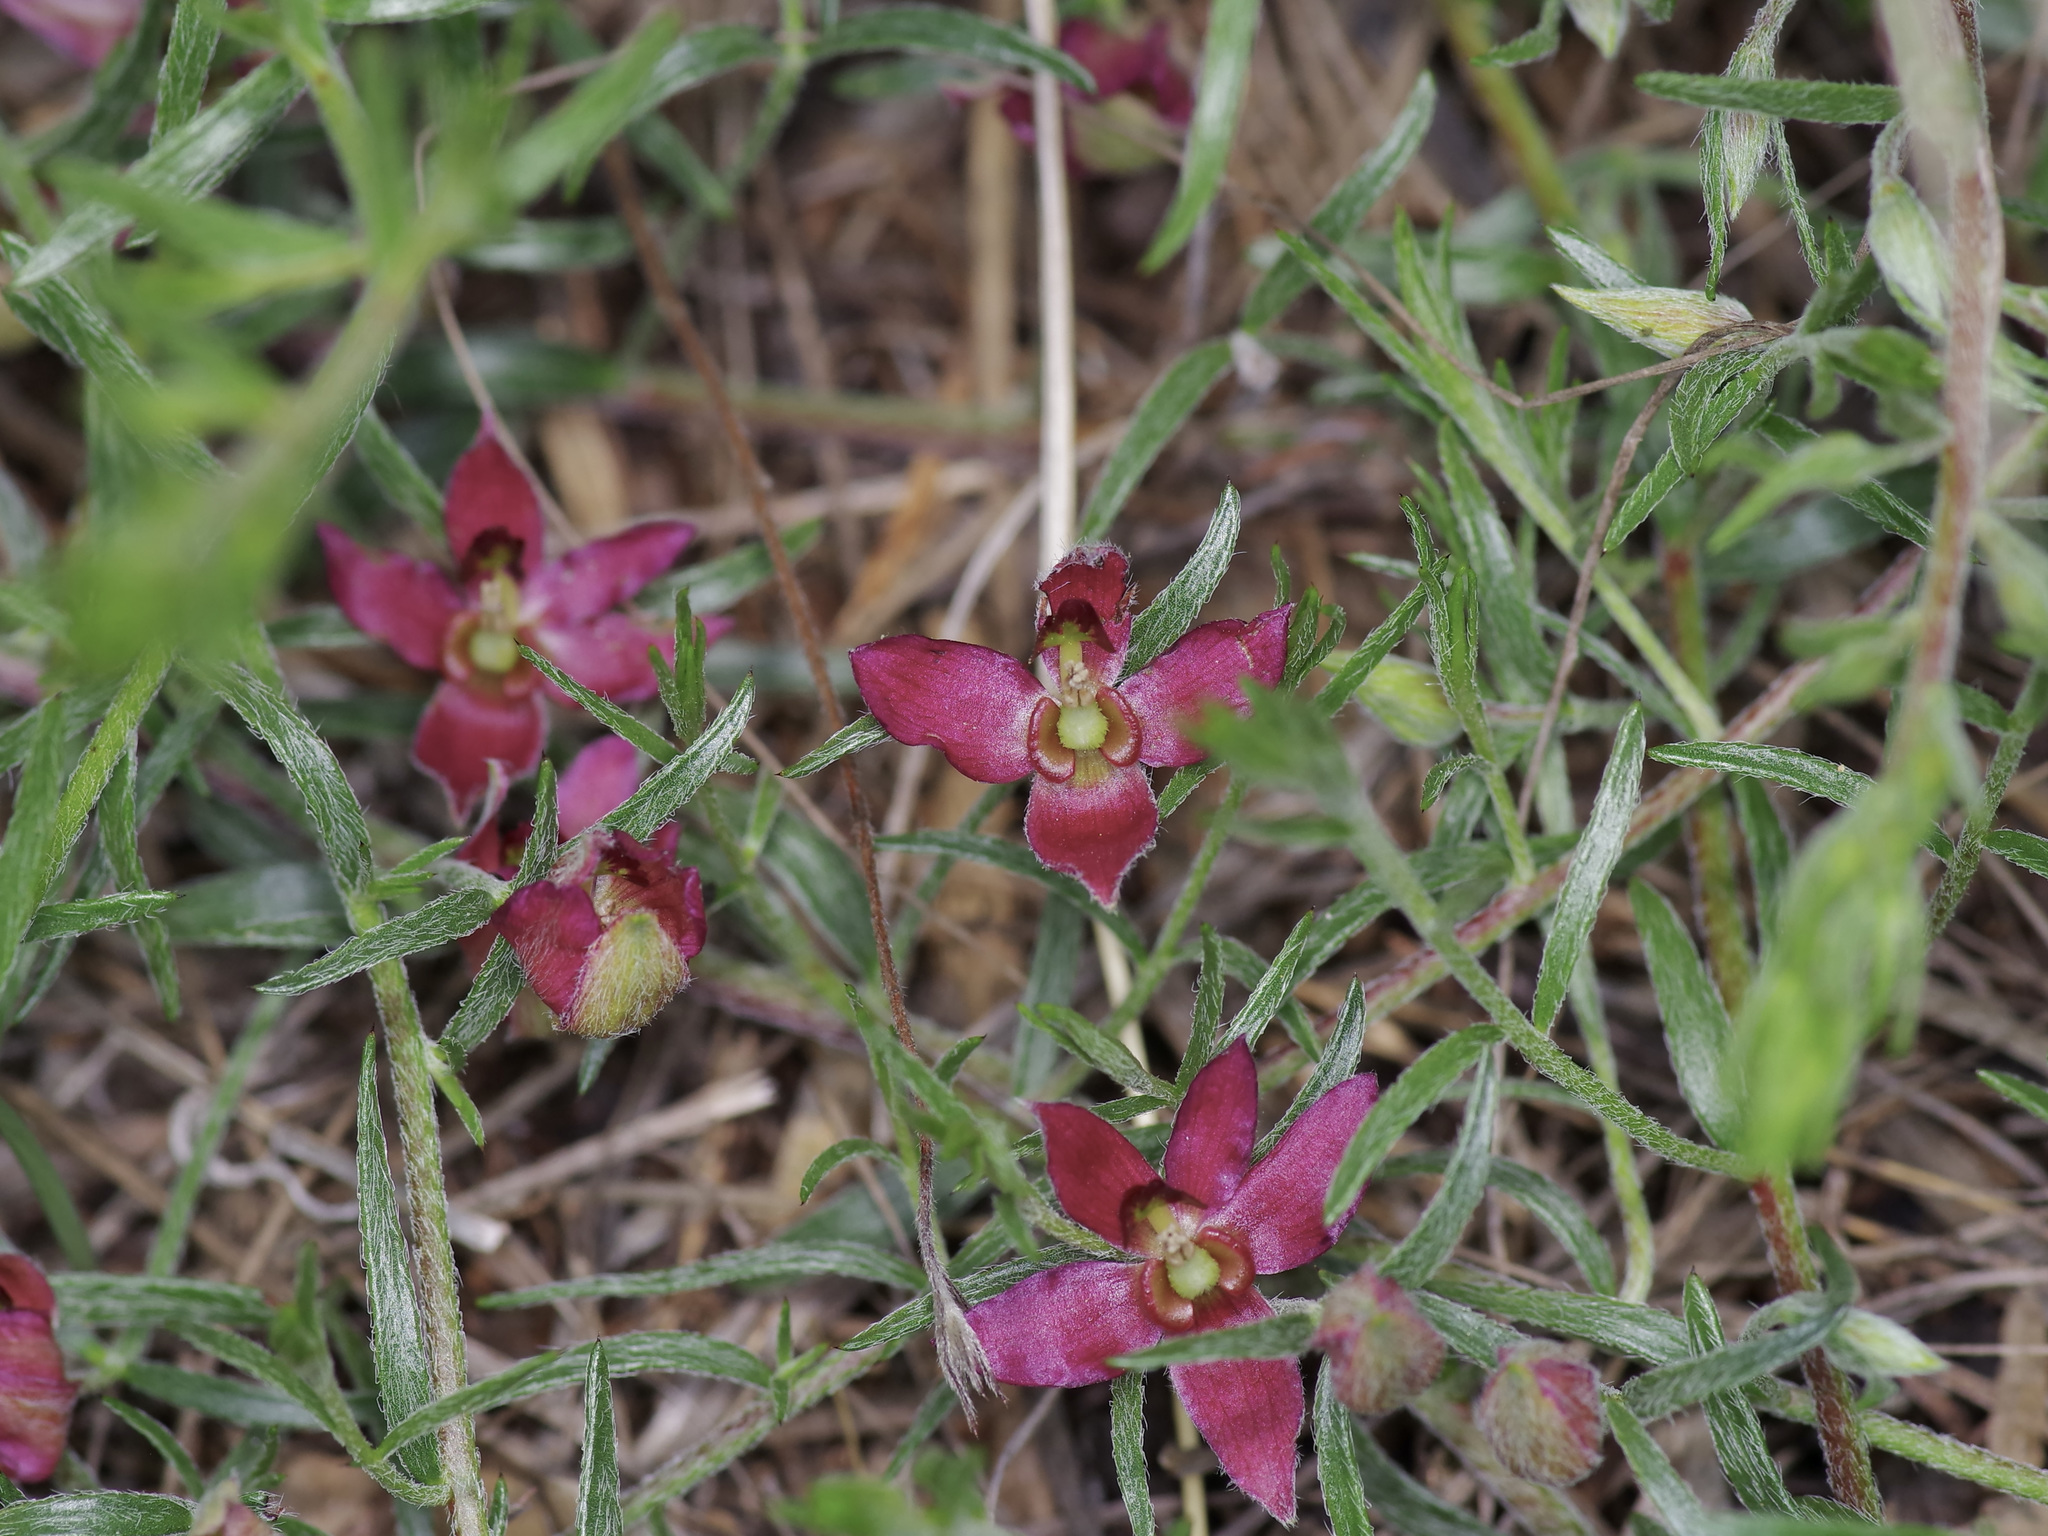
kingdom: Plantae
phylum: Tracheophyta
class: Magnoliopsida
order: Zygophyllales
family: Krameriaceae
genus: Krameria
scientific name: Krameria lanceolata
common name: Ratany
